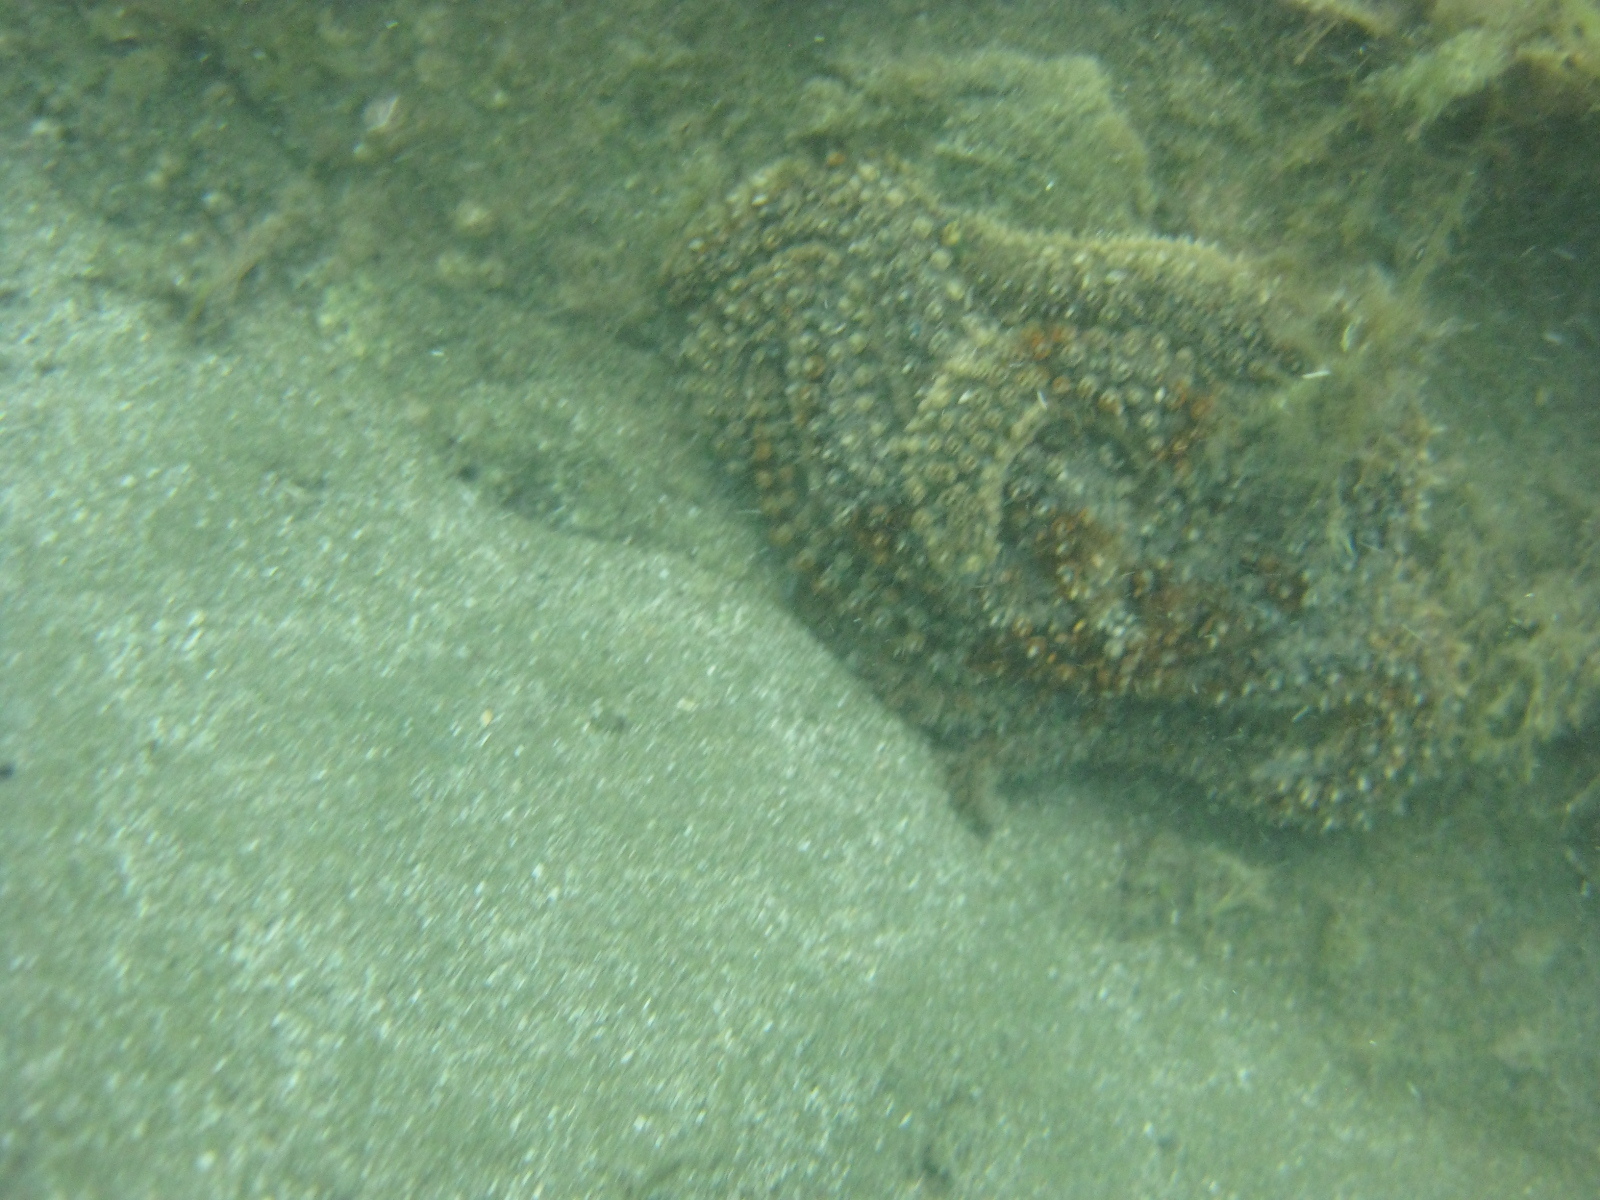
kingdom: Animalia
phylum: Echinodermata
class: Asteroidea
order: Forcipulatida
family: Asteriidae
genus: Coscinasterias
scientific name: Coscinasterias muricata
